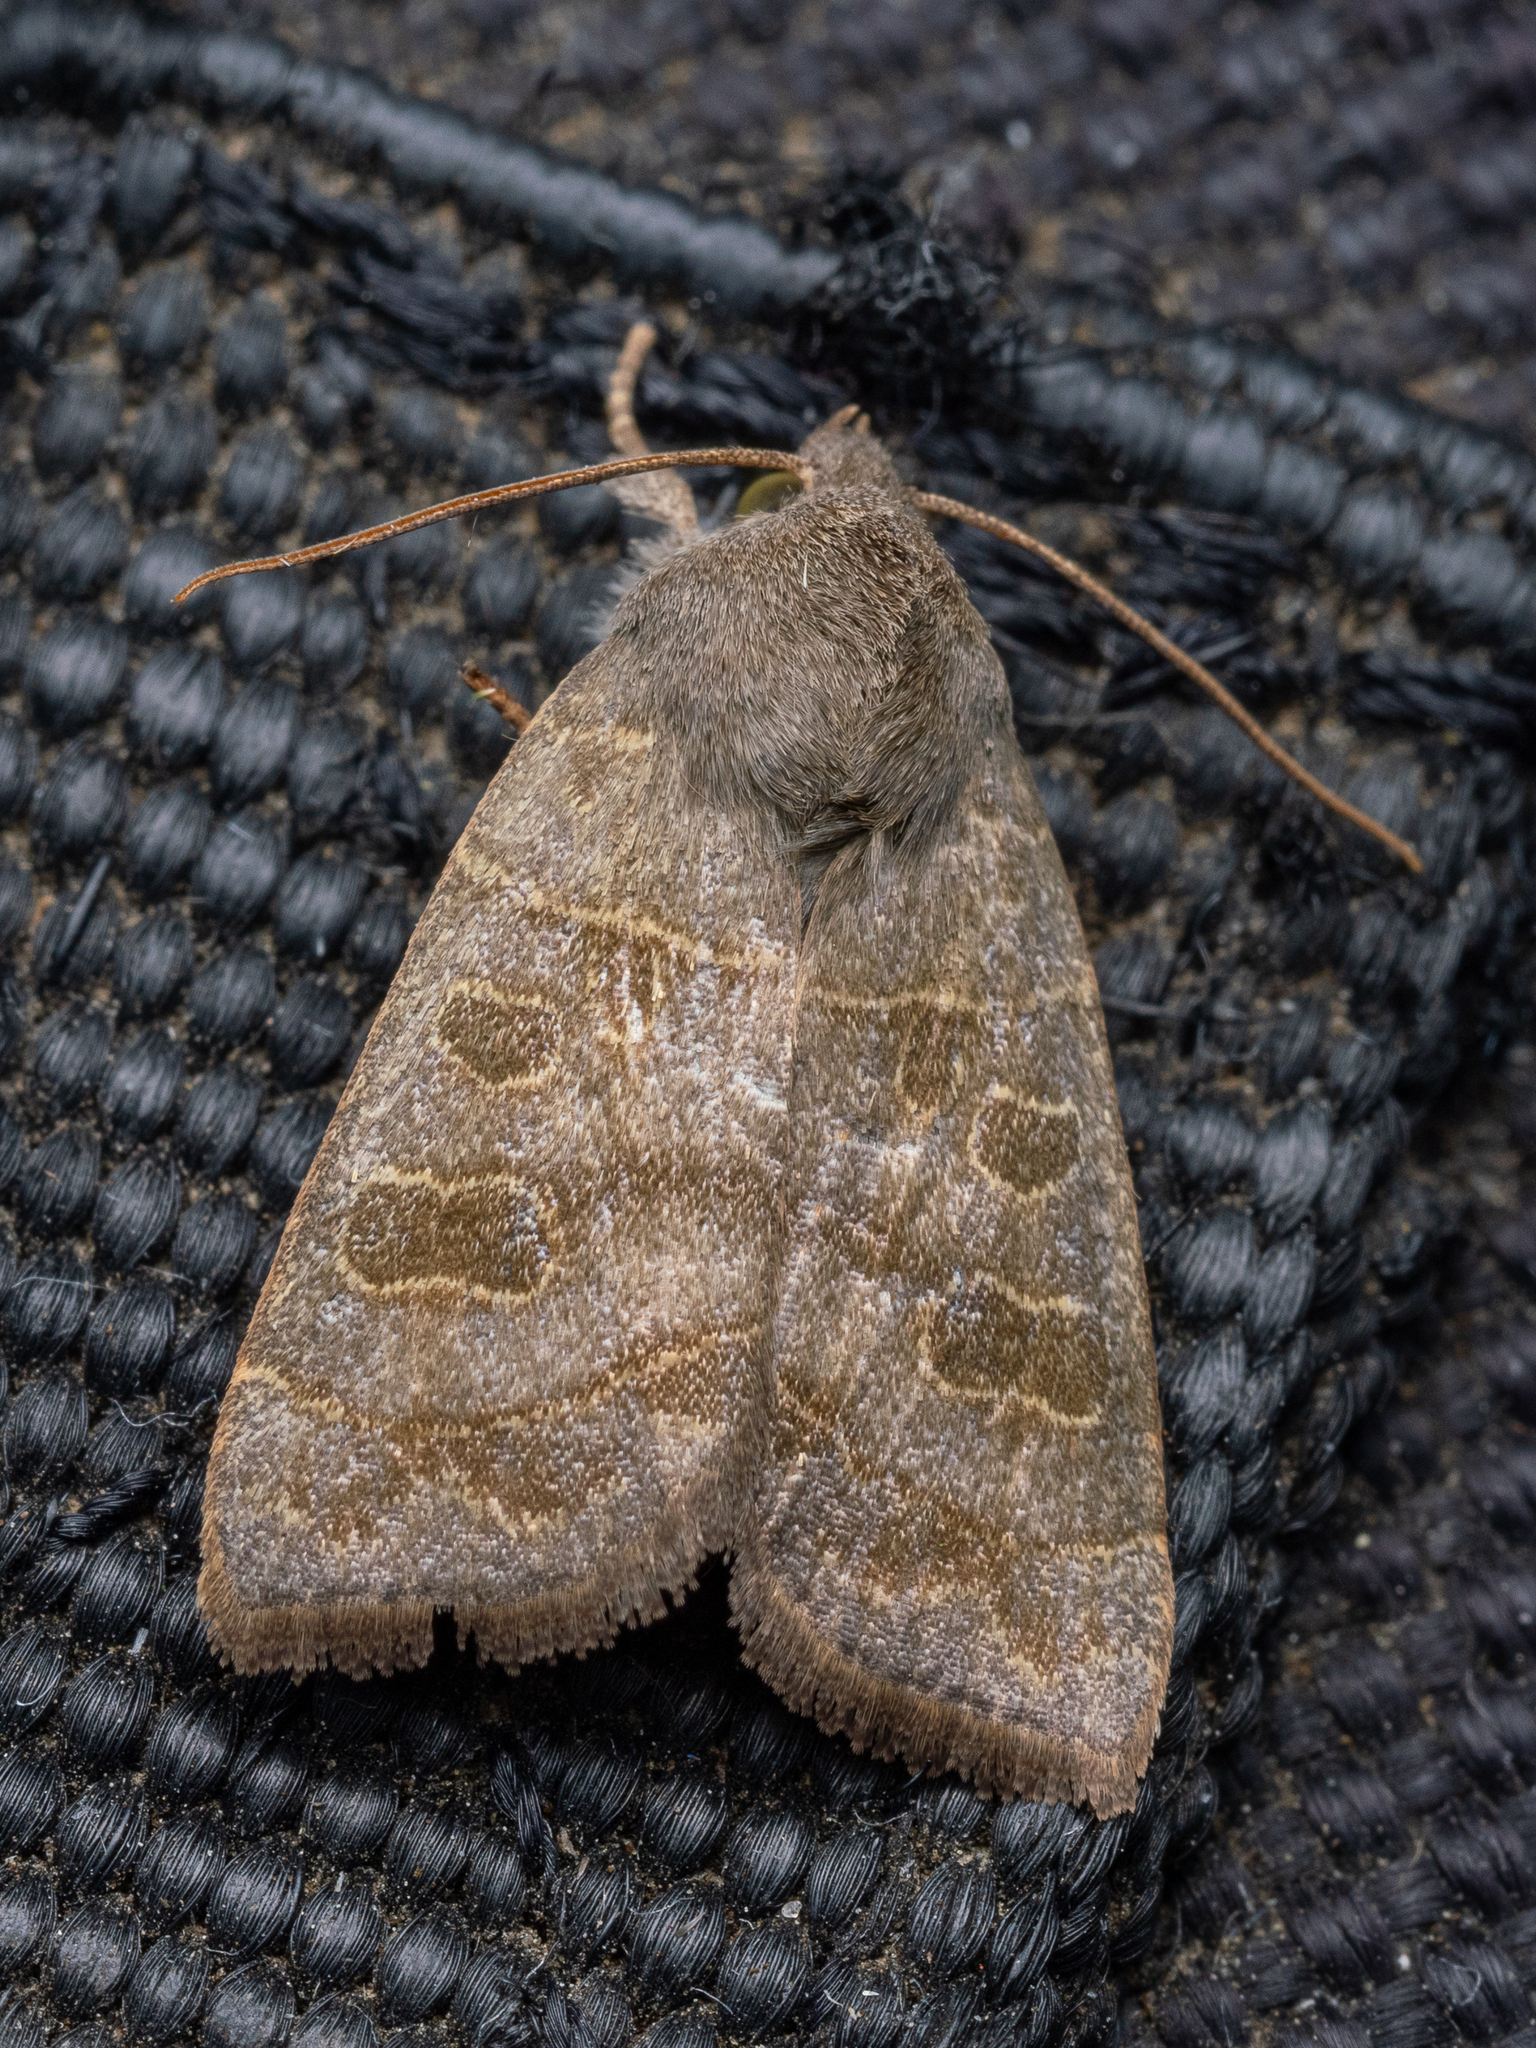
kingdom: Animalia
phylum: Arthropoda
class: Insecta
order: Lepidoptera
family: Noctuidae
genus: Ipimorpha
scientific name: Ipimorpha subtusa
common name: Olive
